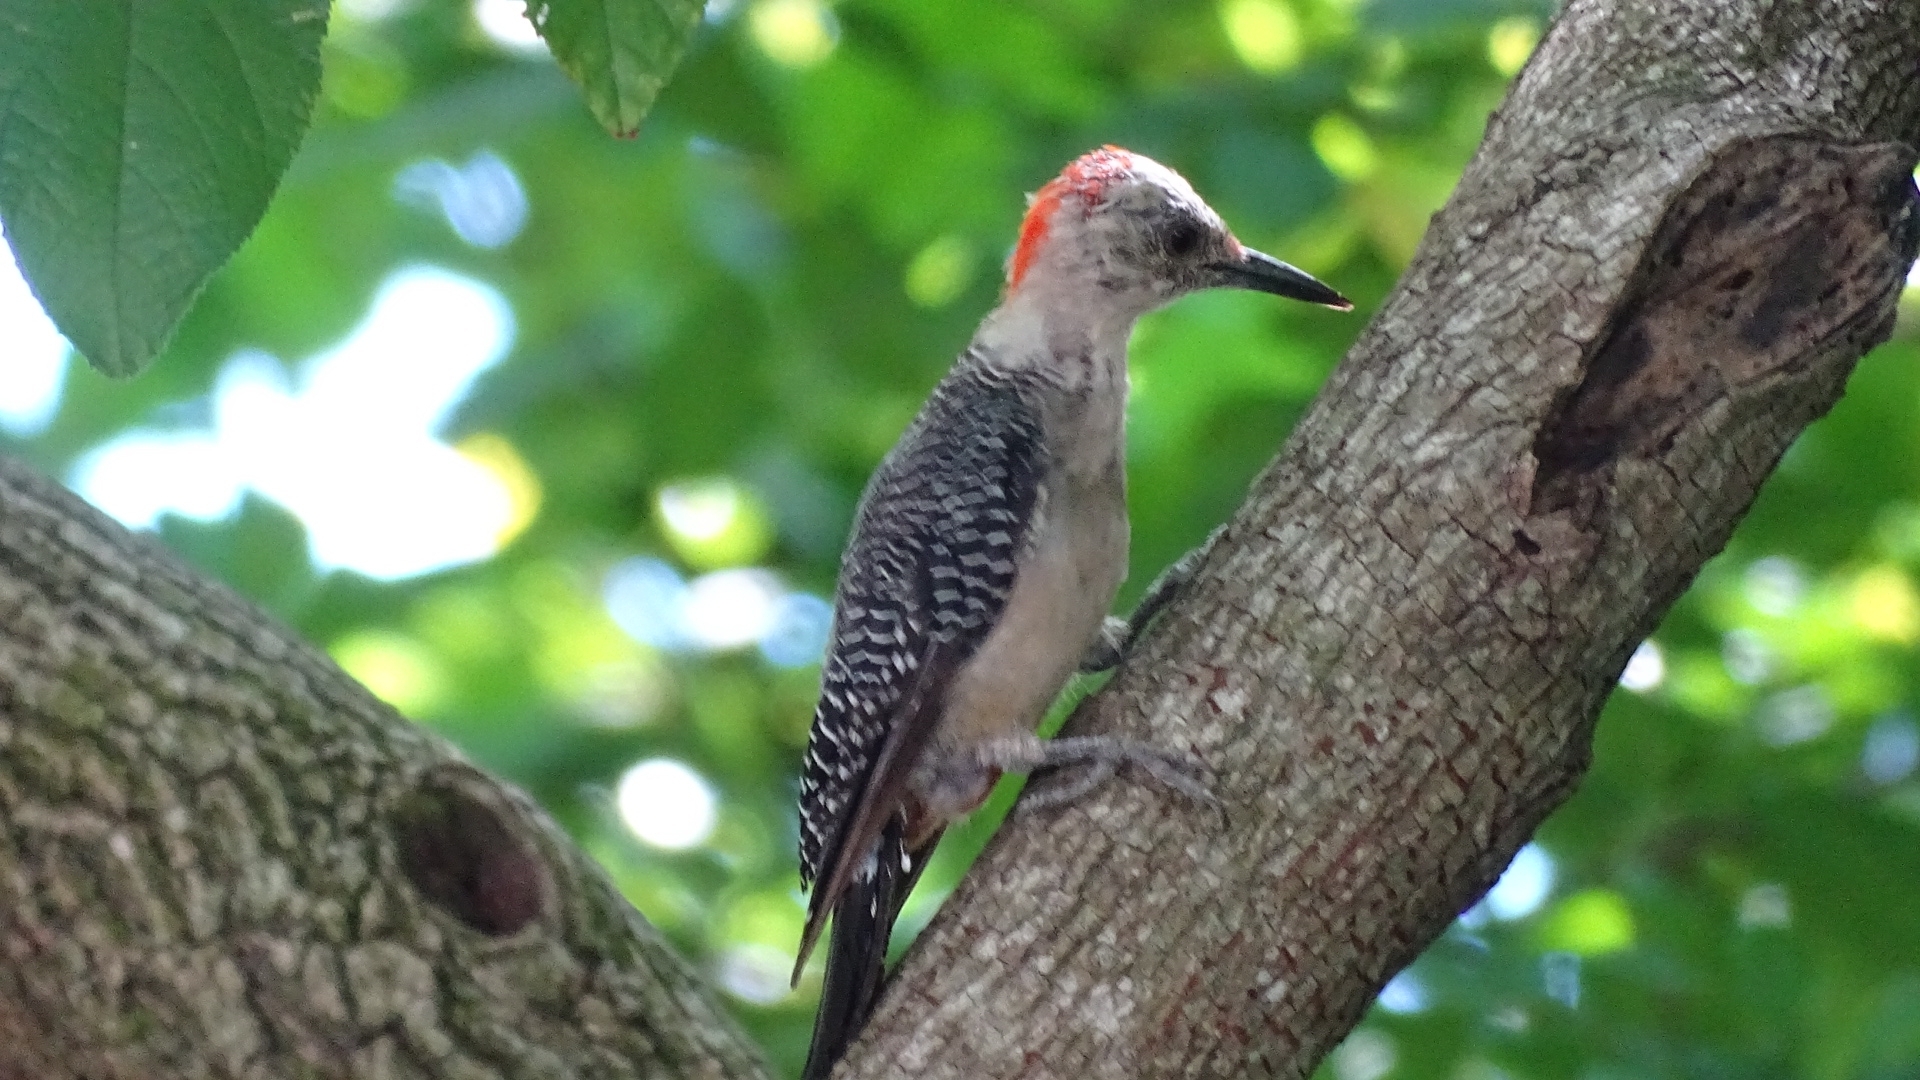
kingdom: Animalia
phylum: Chordata
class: Aves
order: Piciformes
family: Picidae
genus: Melanerpes
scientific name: Melanerpes aurifrons
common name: Golden-fronted woodpecker
